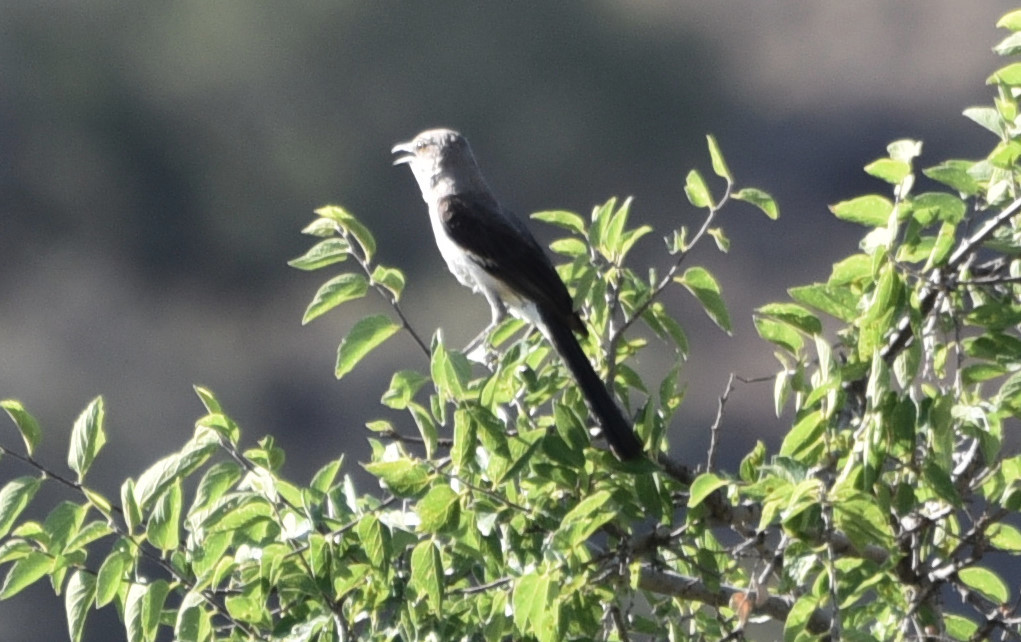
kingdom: Animalia
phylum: Chordata
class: Aves
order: Passeriformes
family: Mimidae
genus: Mimus
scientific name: Mimus polyglottos
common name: Northern mockingbird
